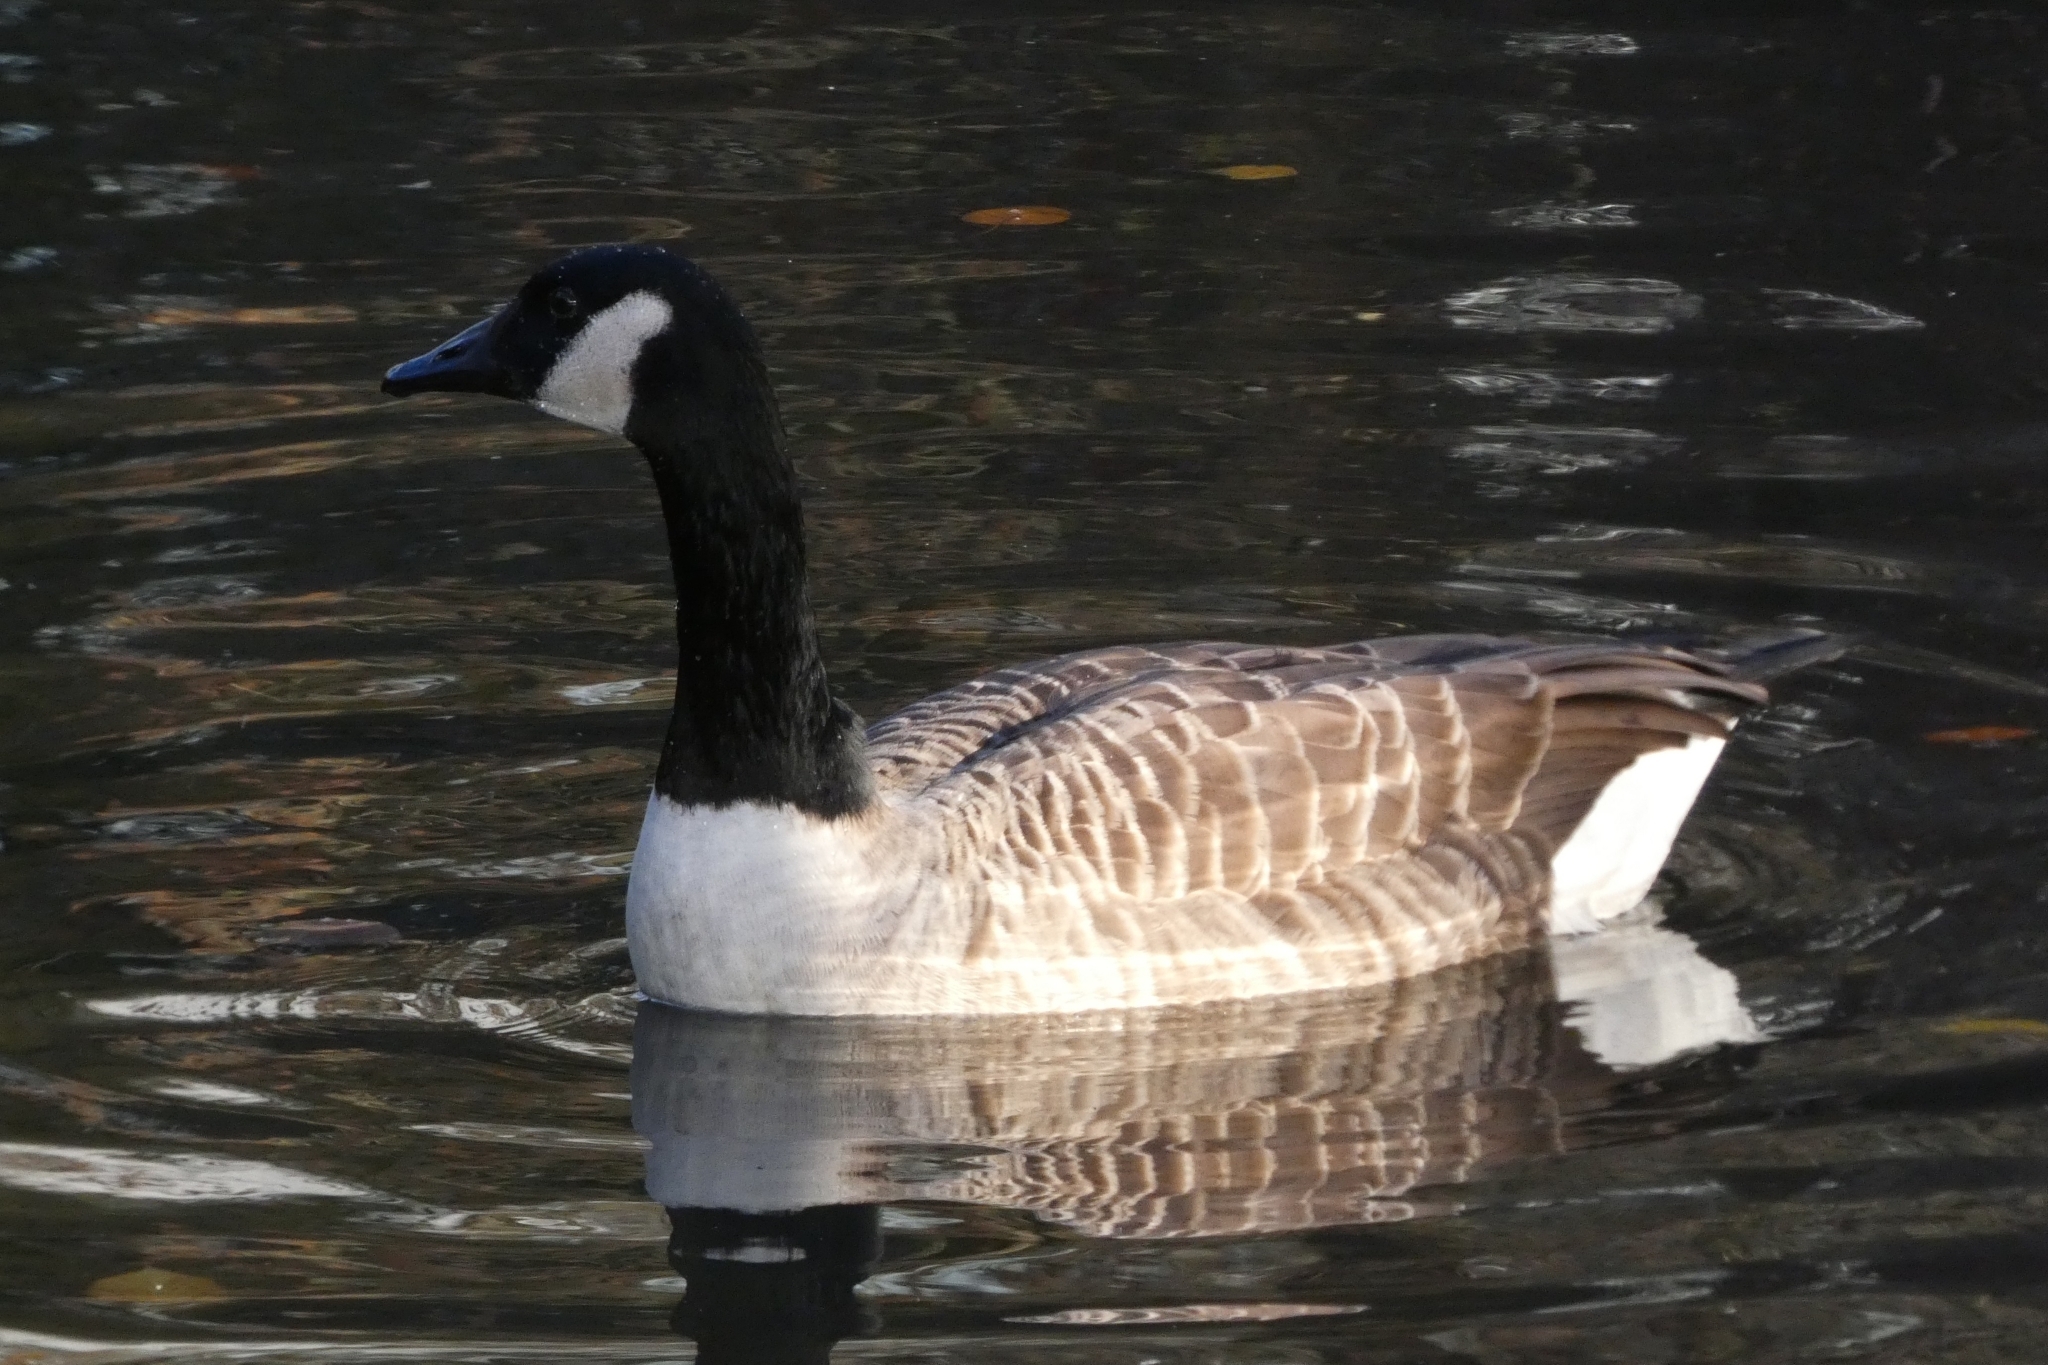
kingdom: Animalia
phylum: Chordata
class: Aves
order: Anseriformes
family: Anatidae
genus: Branta
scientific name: Branta canadensis
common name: Canada goose
